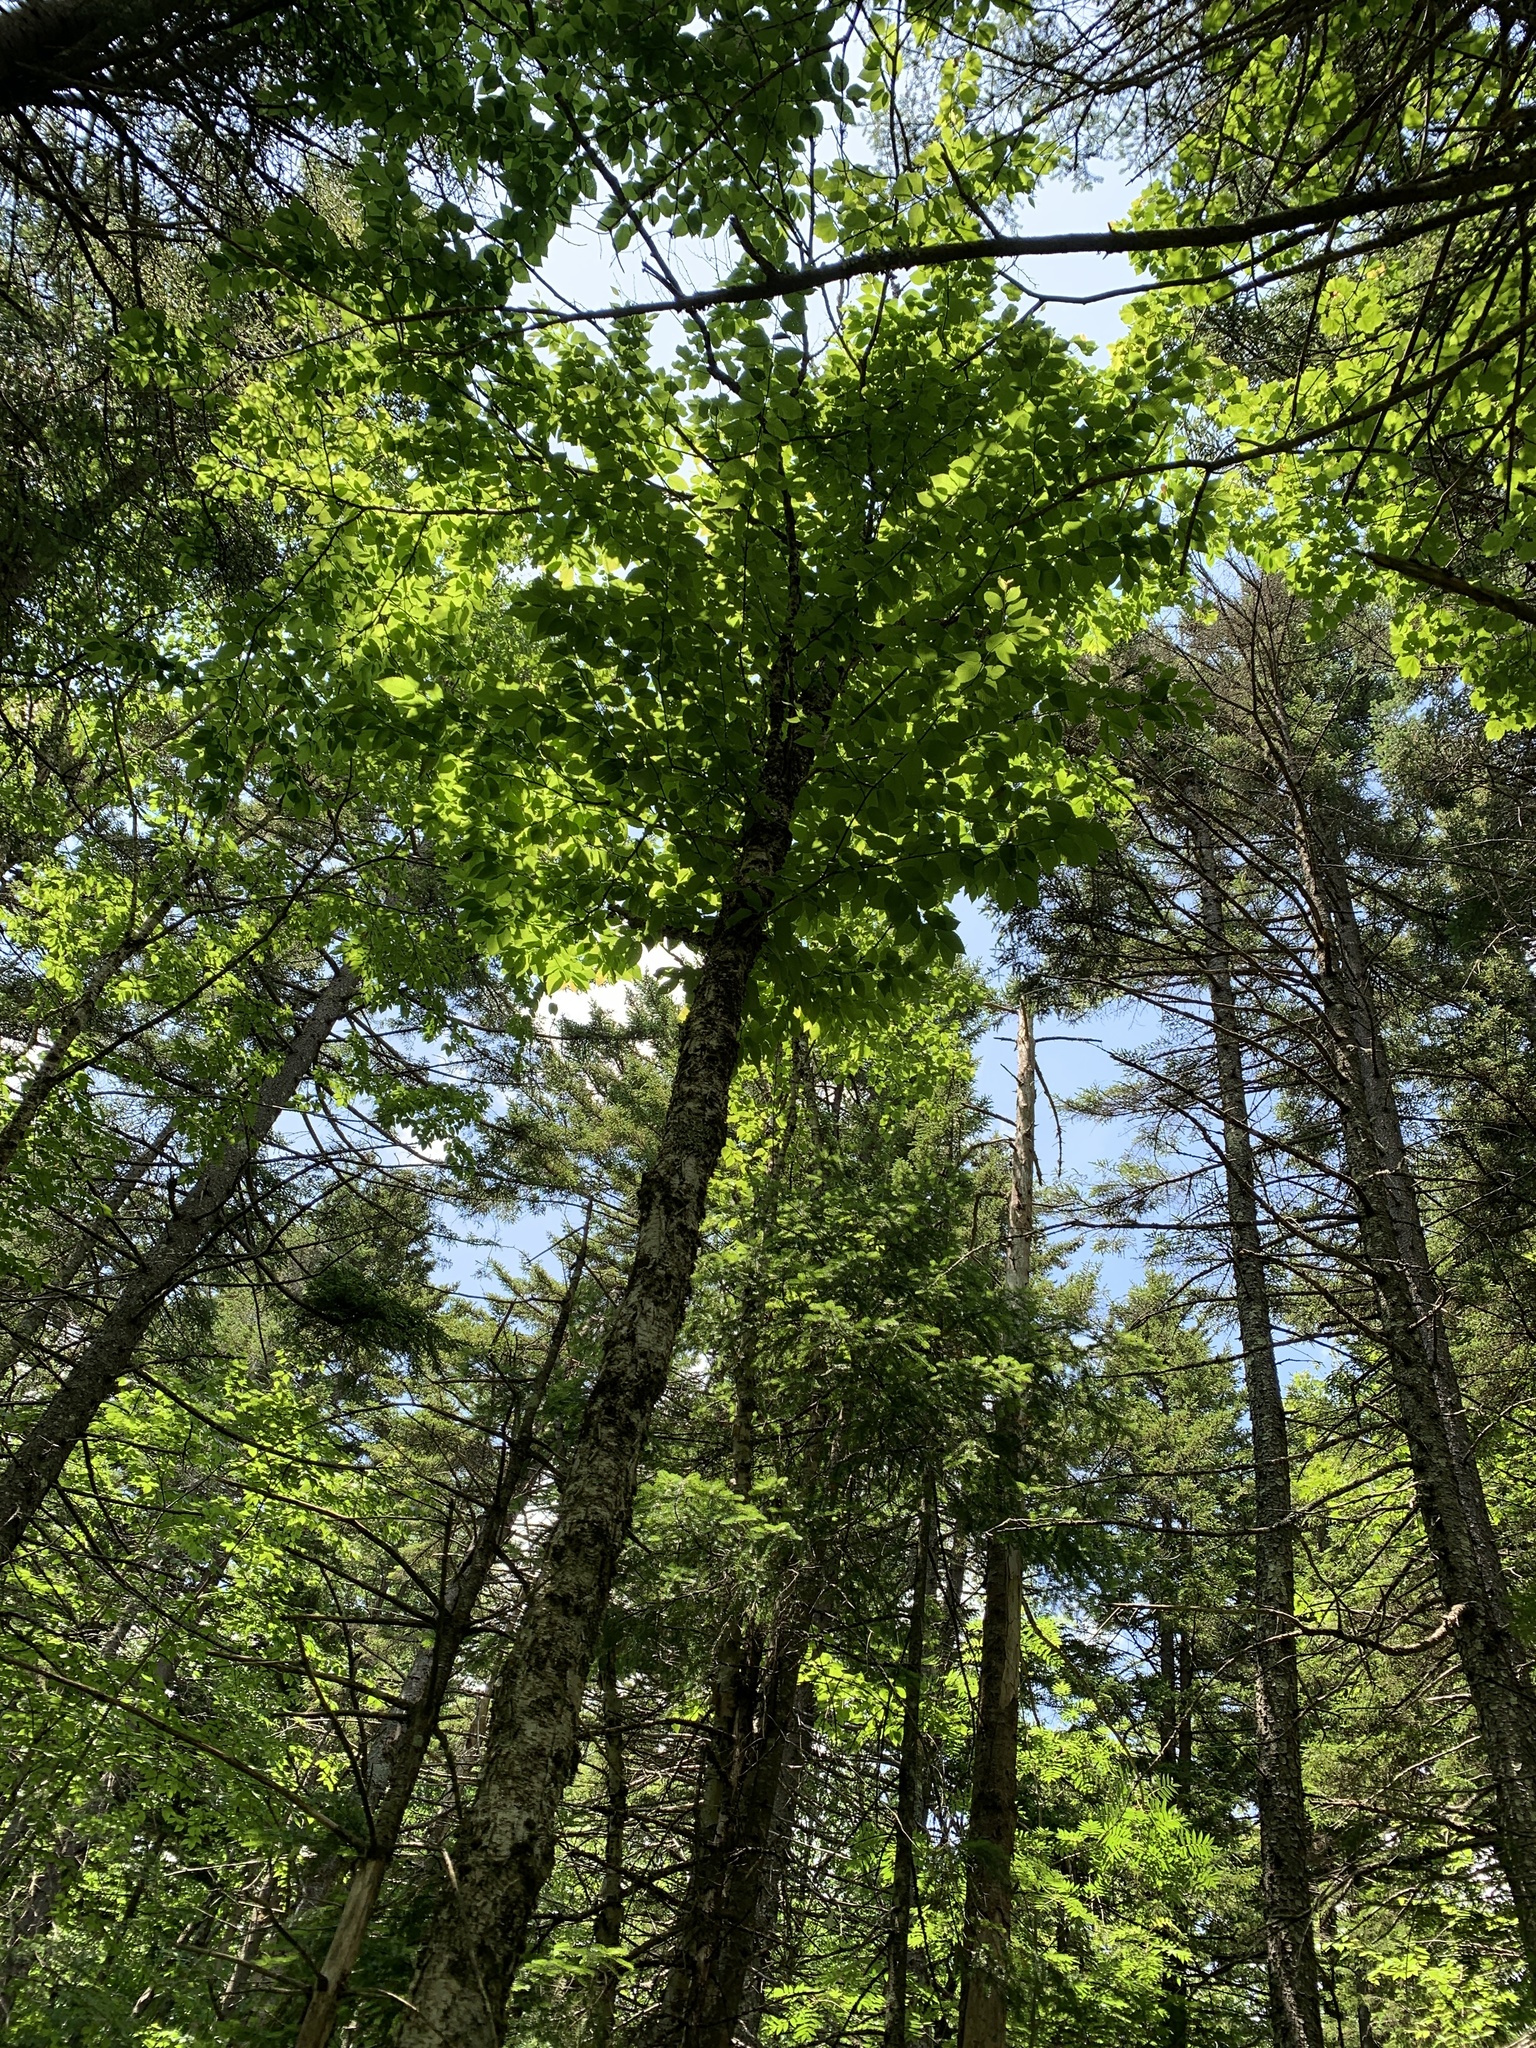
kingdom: Plantae
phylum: Tracheophyta
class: Magnoliopsida
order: Fagales
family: Betulaceae
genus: Betula
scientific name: Betula alleghaniensis
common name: Yellow birch
